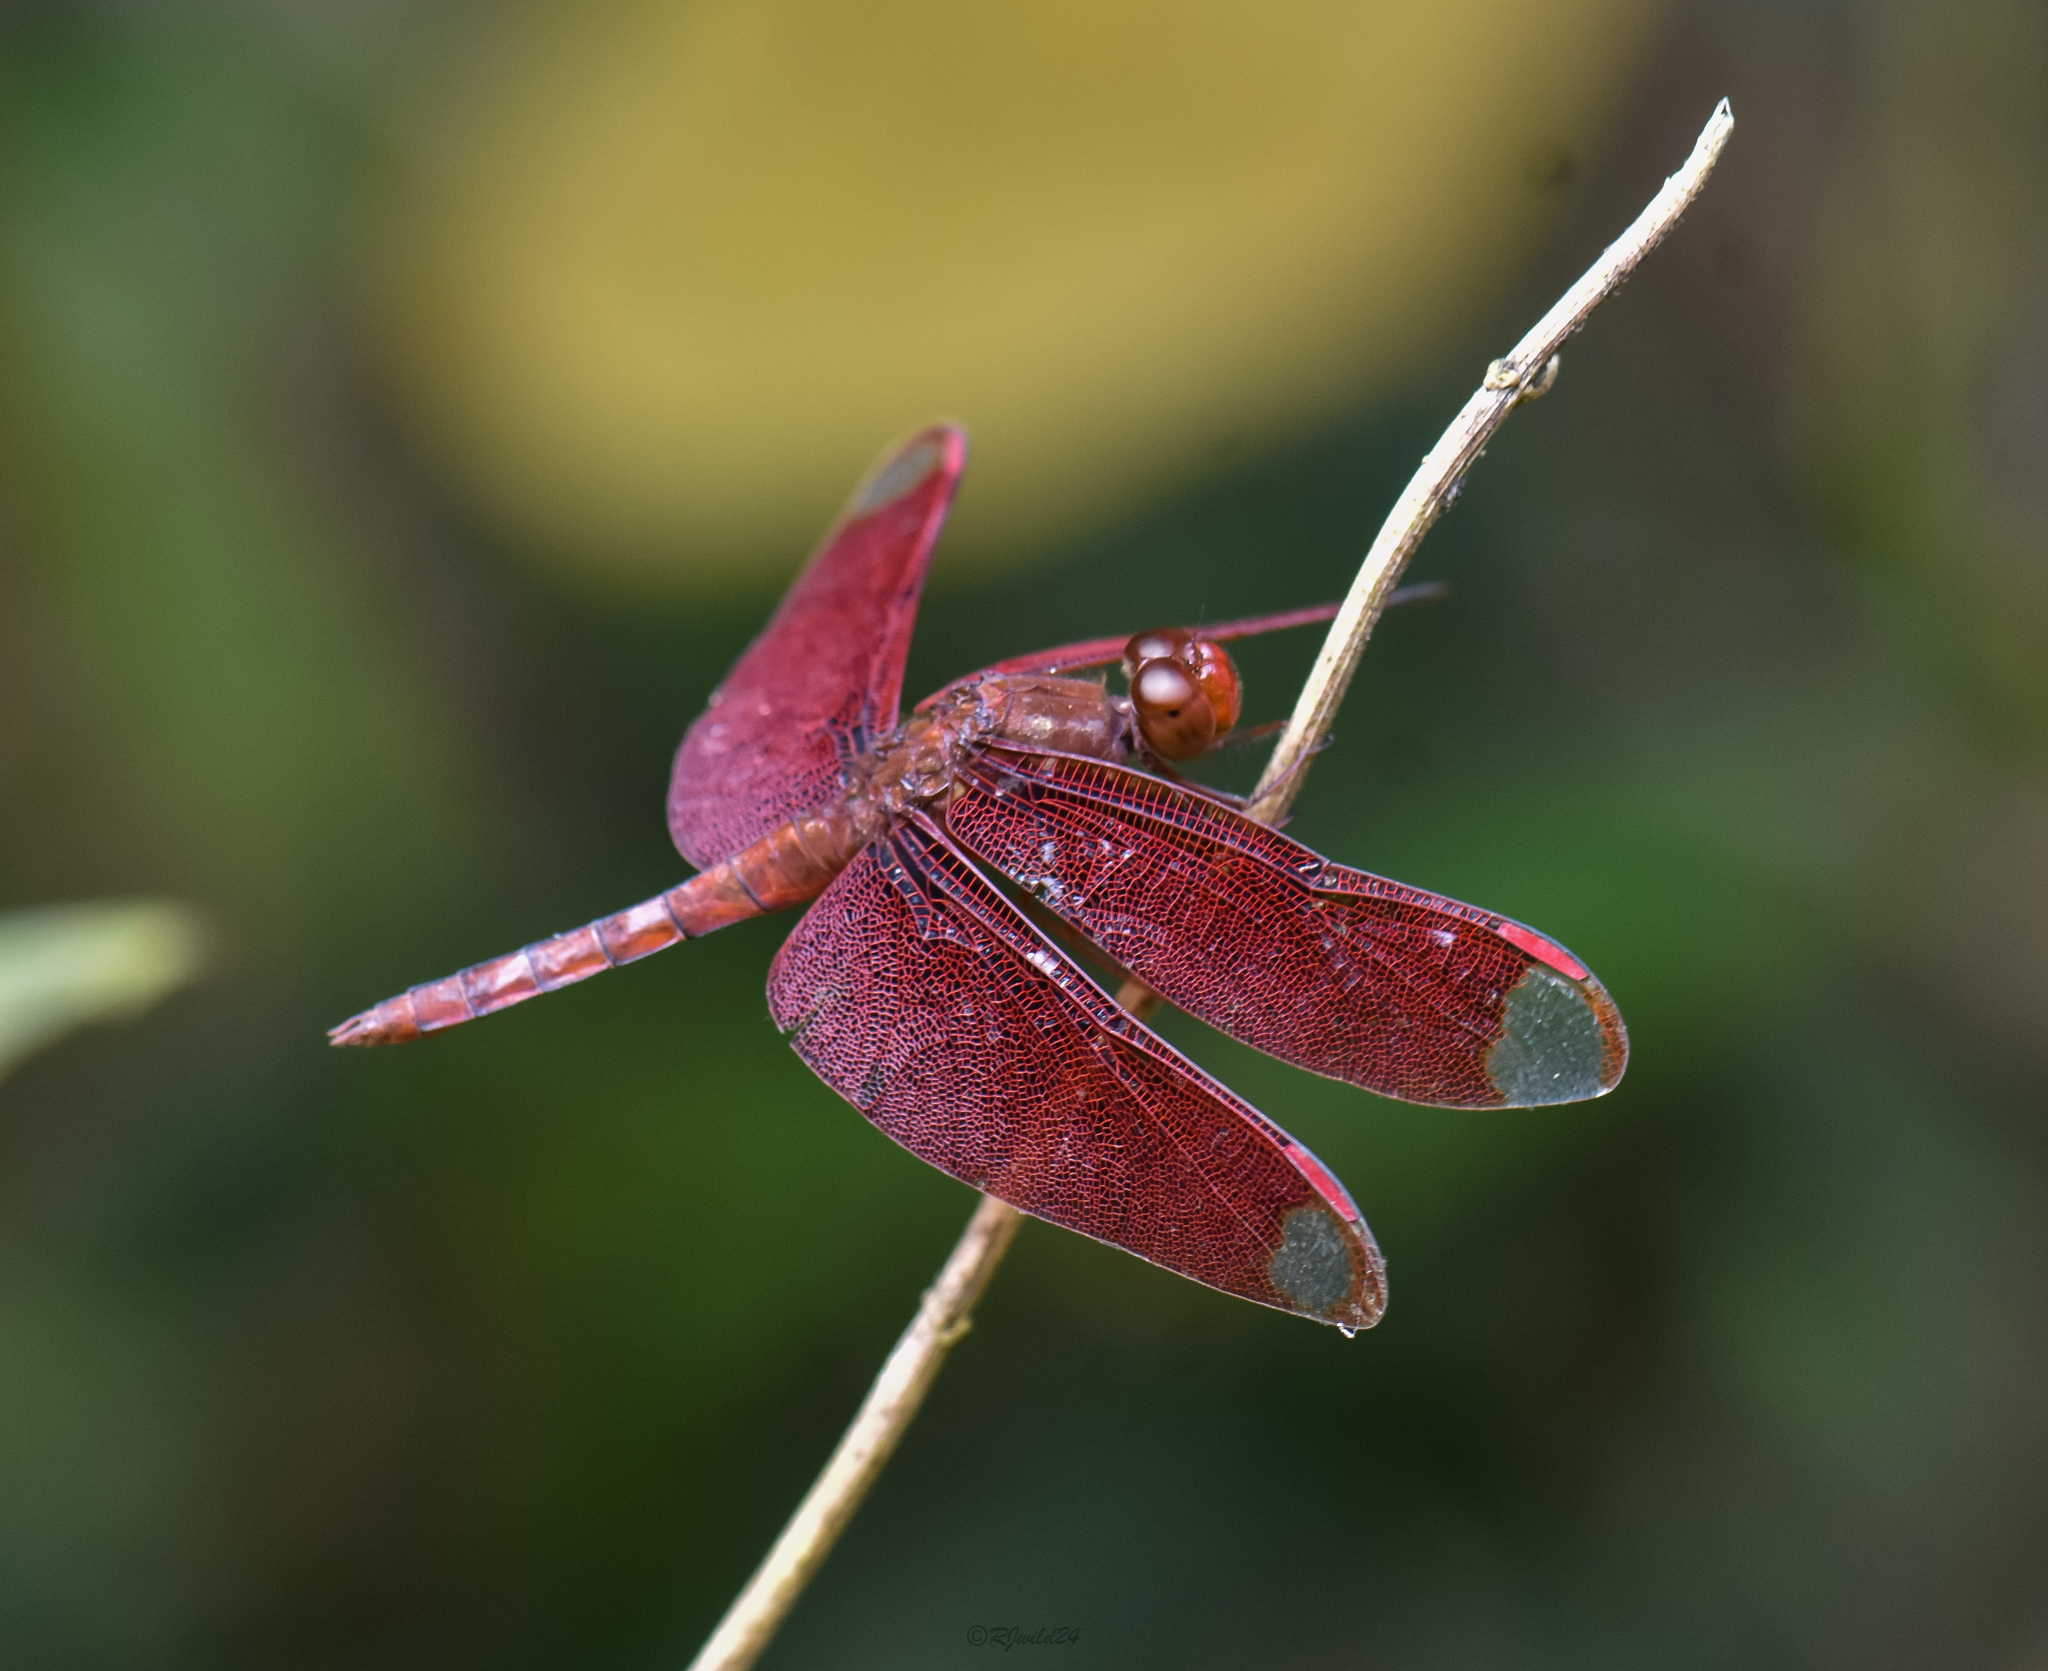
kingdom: Animalia
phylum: Arthropoda
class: Insecta
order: Odonata
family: Libellulidae
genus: Neurothemis
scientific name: Neurothemis fulvia
